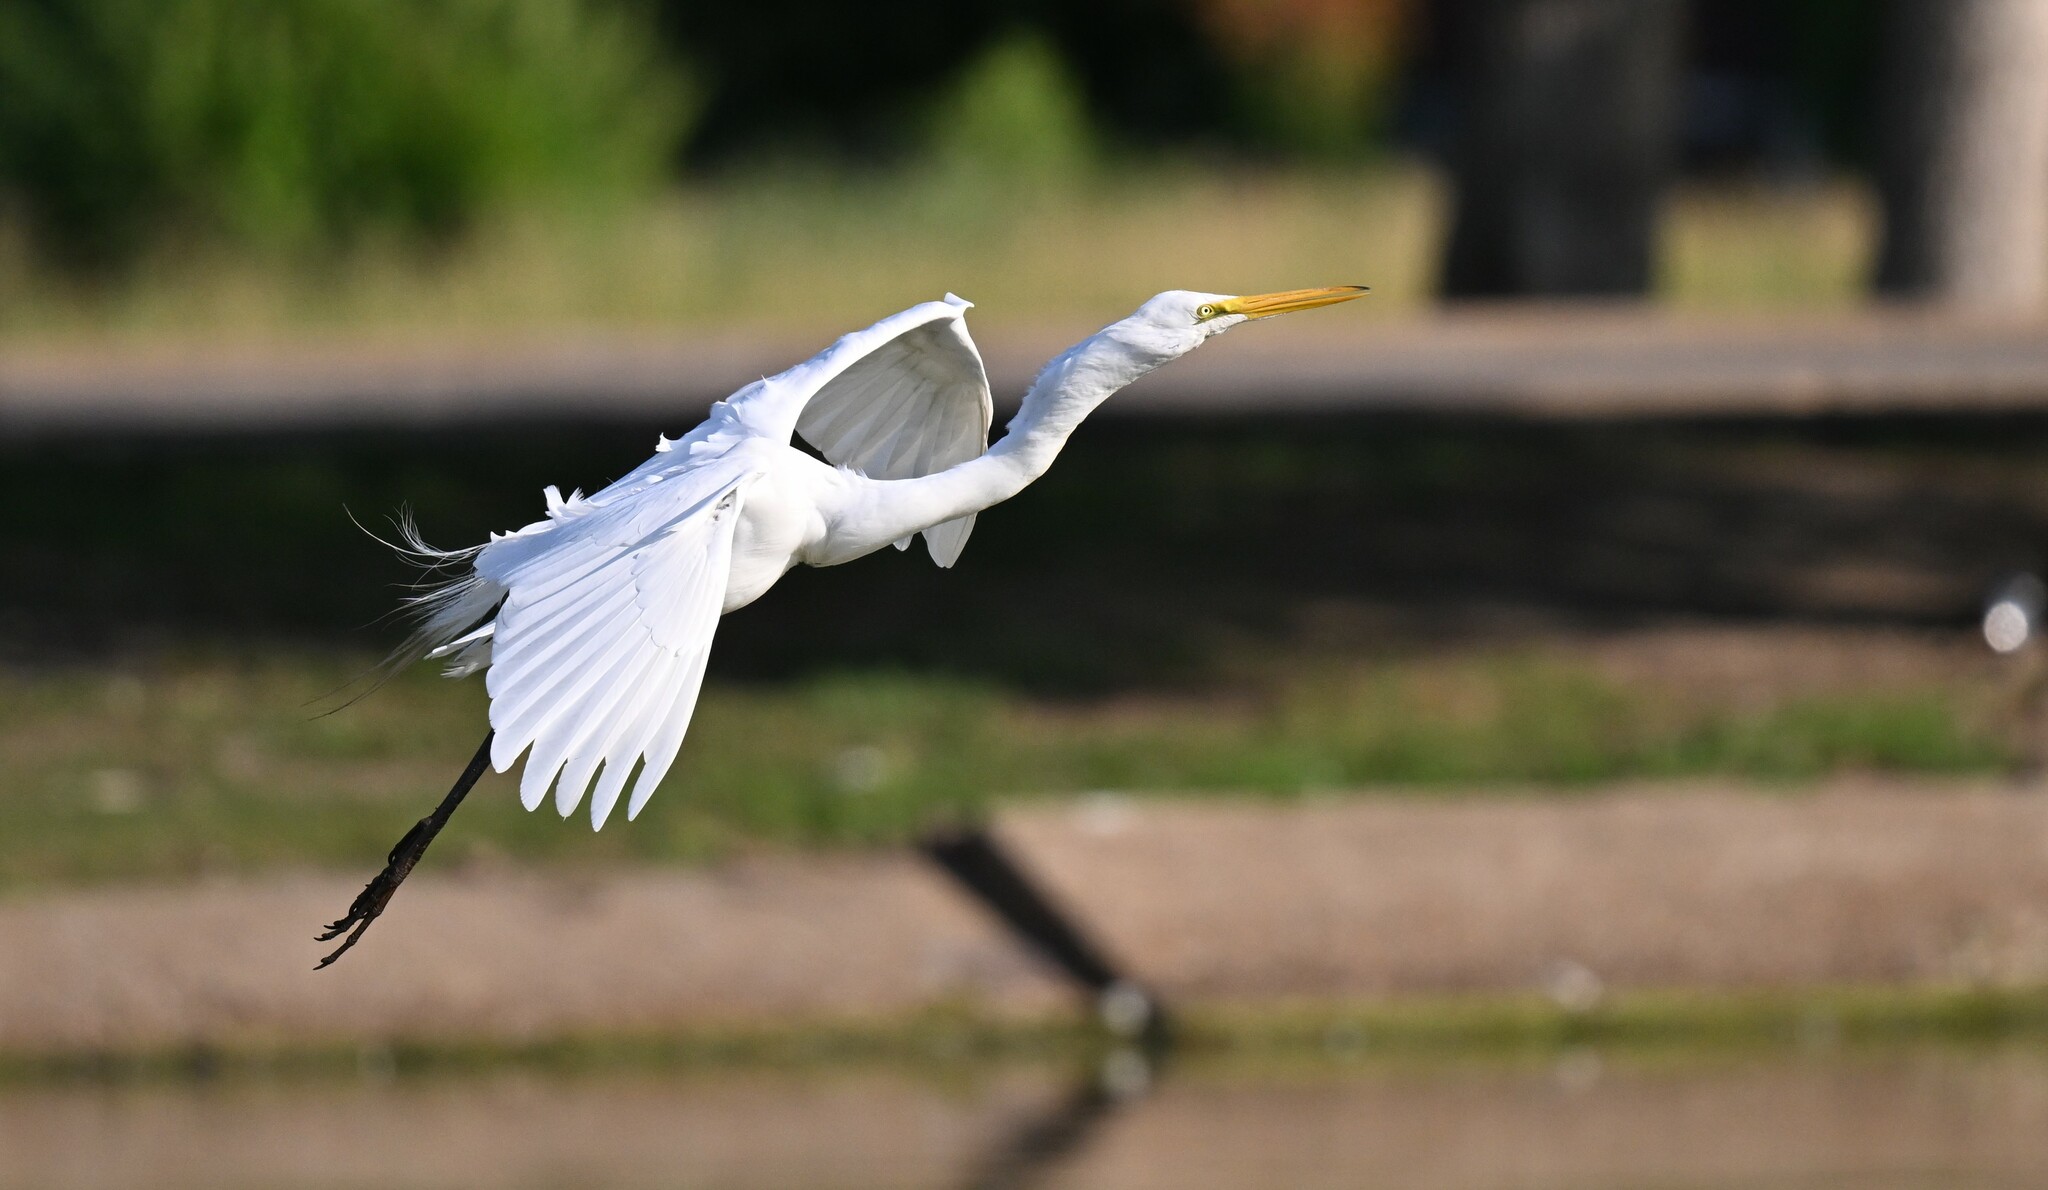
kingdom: Animalia
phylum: Chordata
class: Aves
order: Pelecaniformes
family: Ardeidae
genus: Ardea
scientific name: Ardea alba
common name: Great egret
